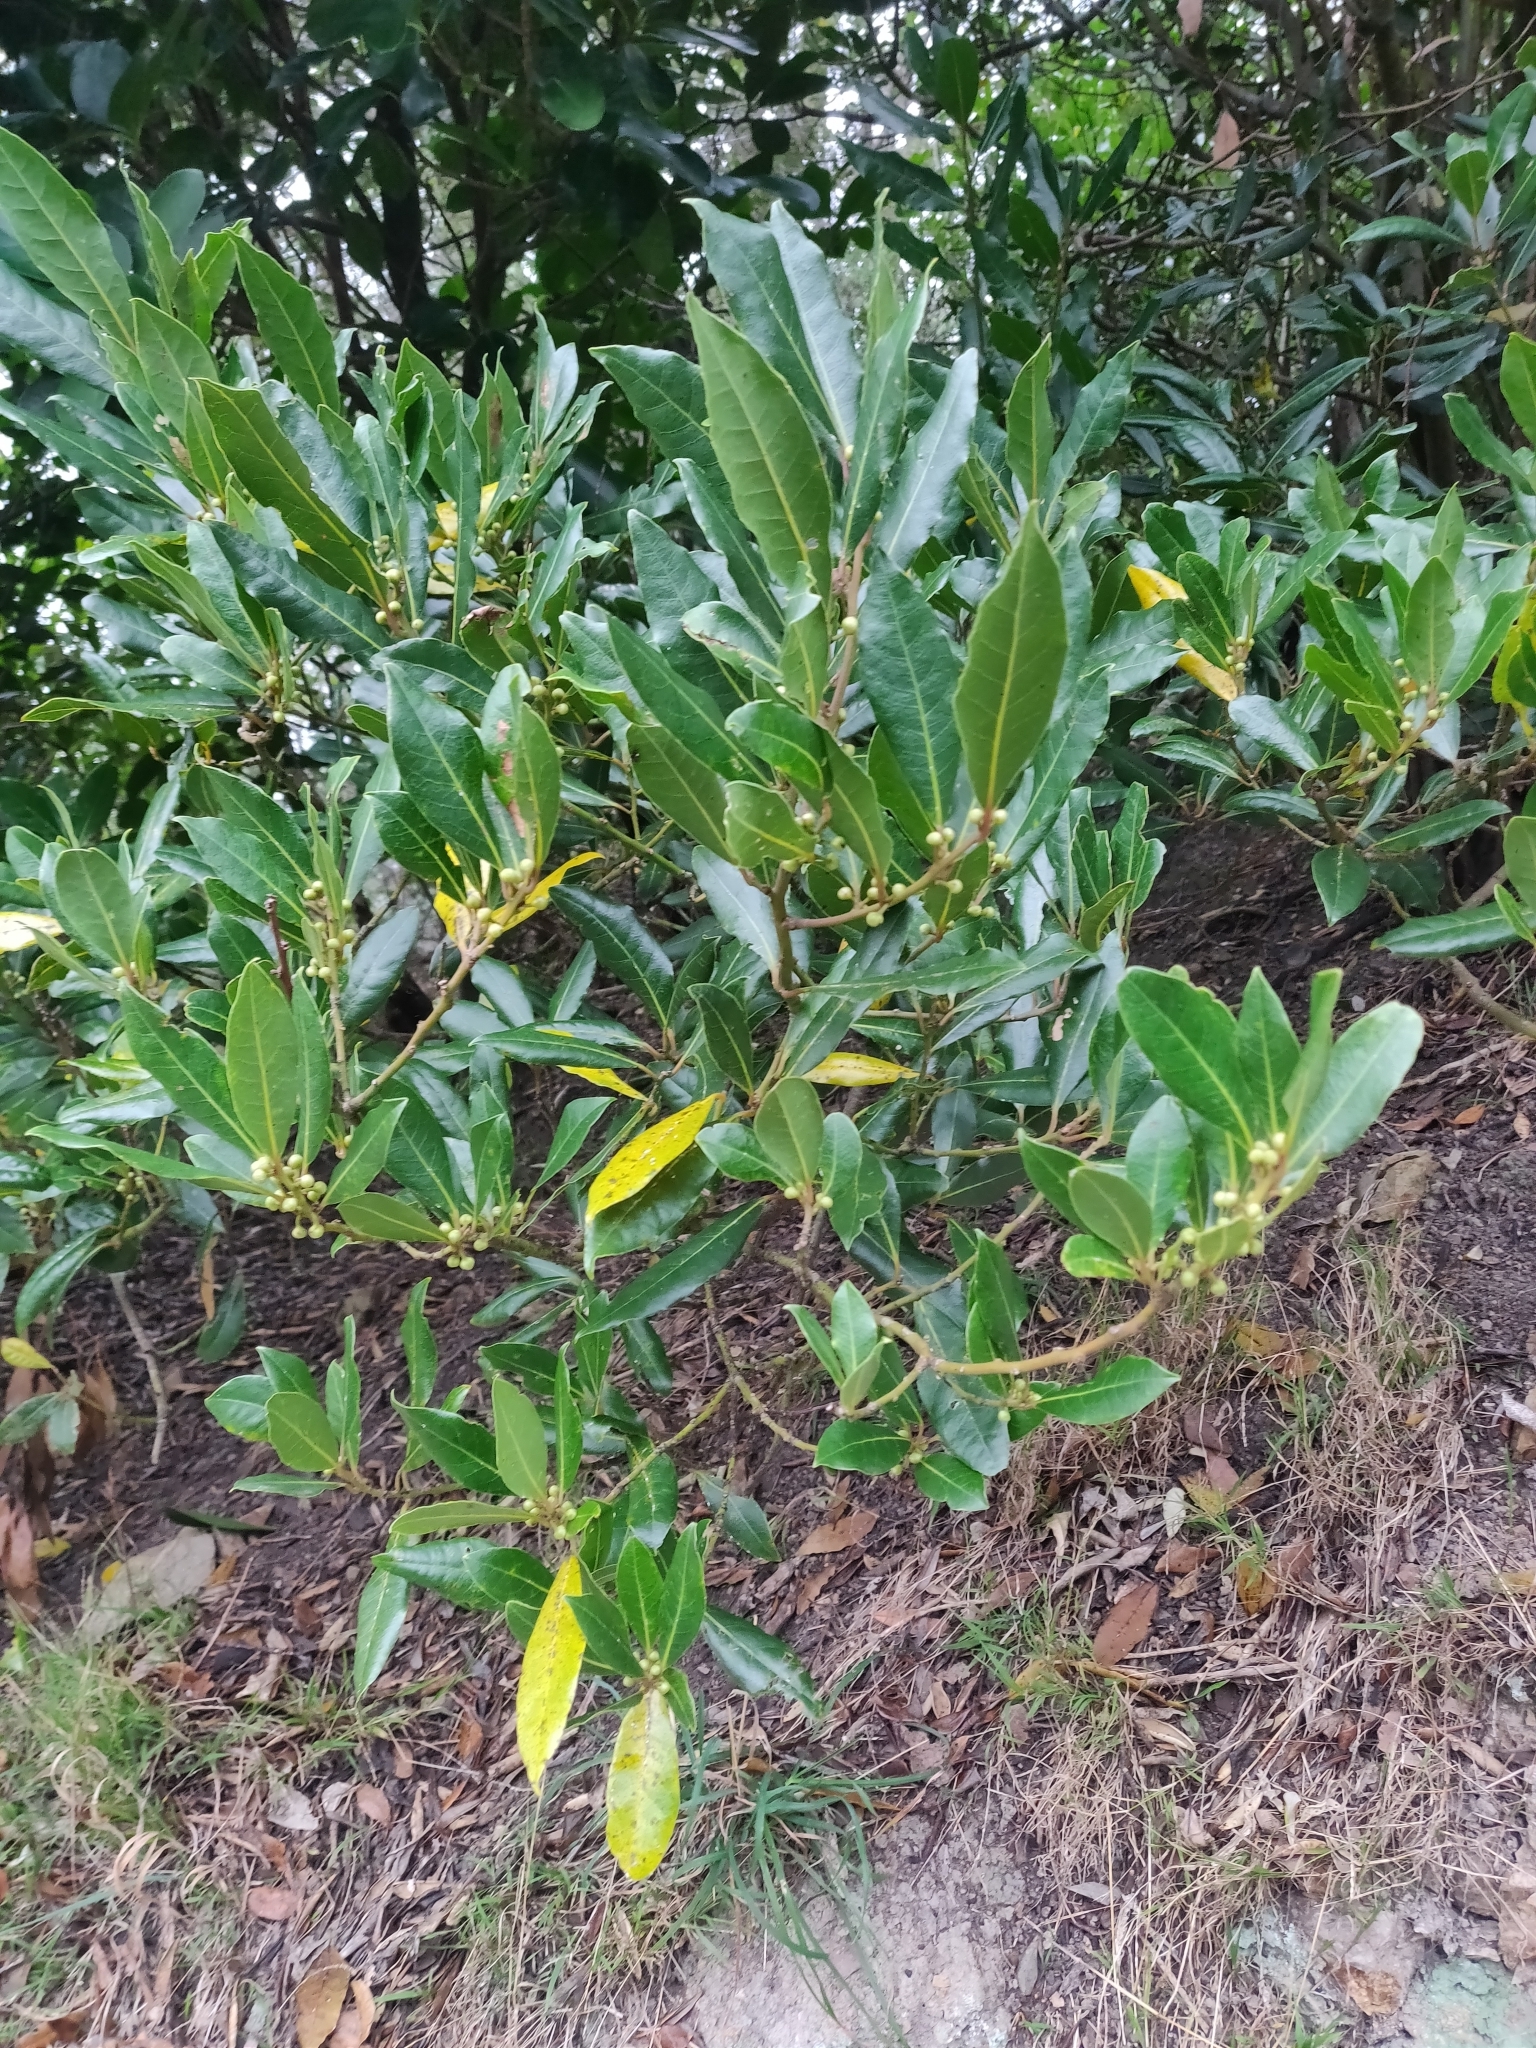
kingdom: Plantae
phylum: Tracheophyta
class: Magnoliopsida
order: Laurales
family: Lauraceae
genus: Laurus
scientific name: Laurus nobilis
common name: Bay
